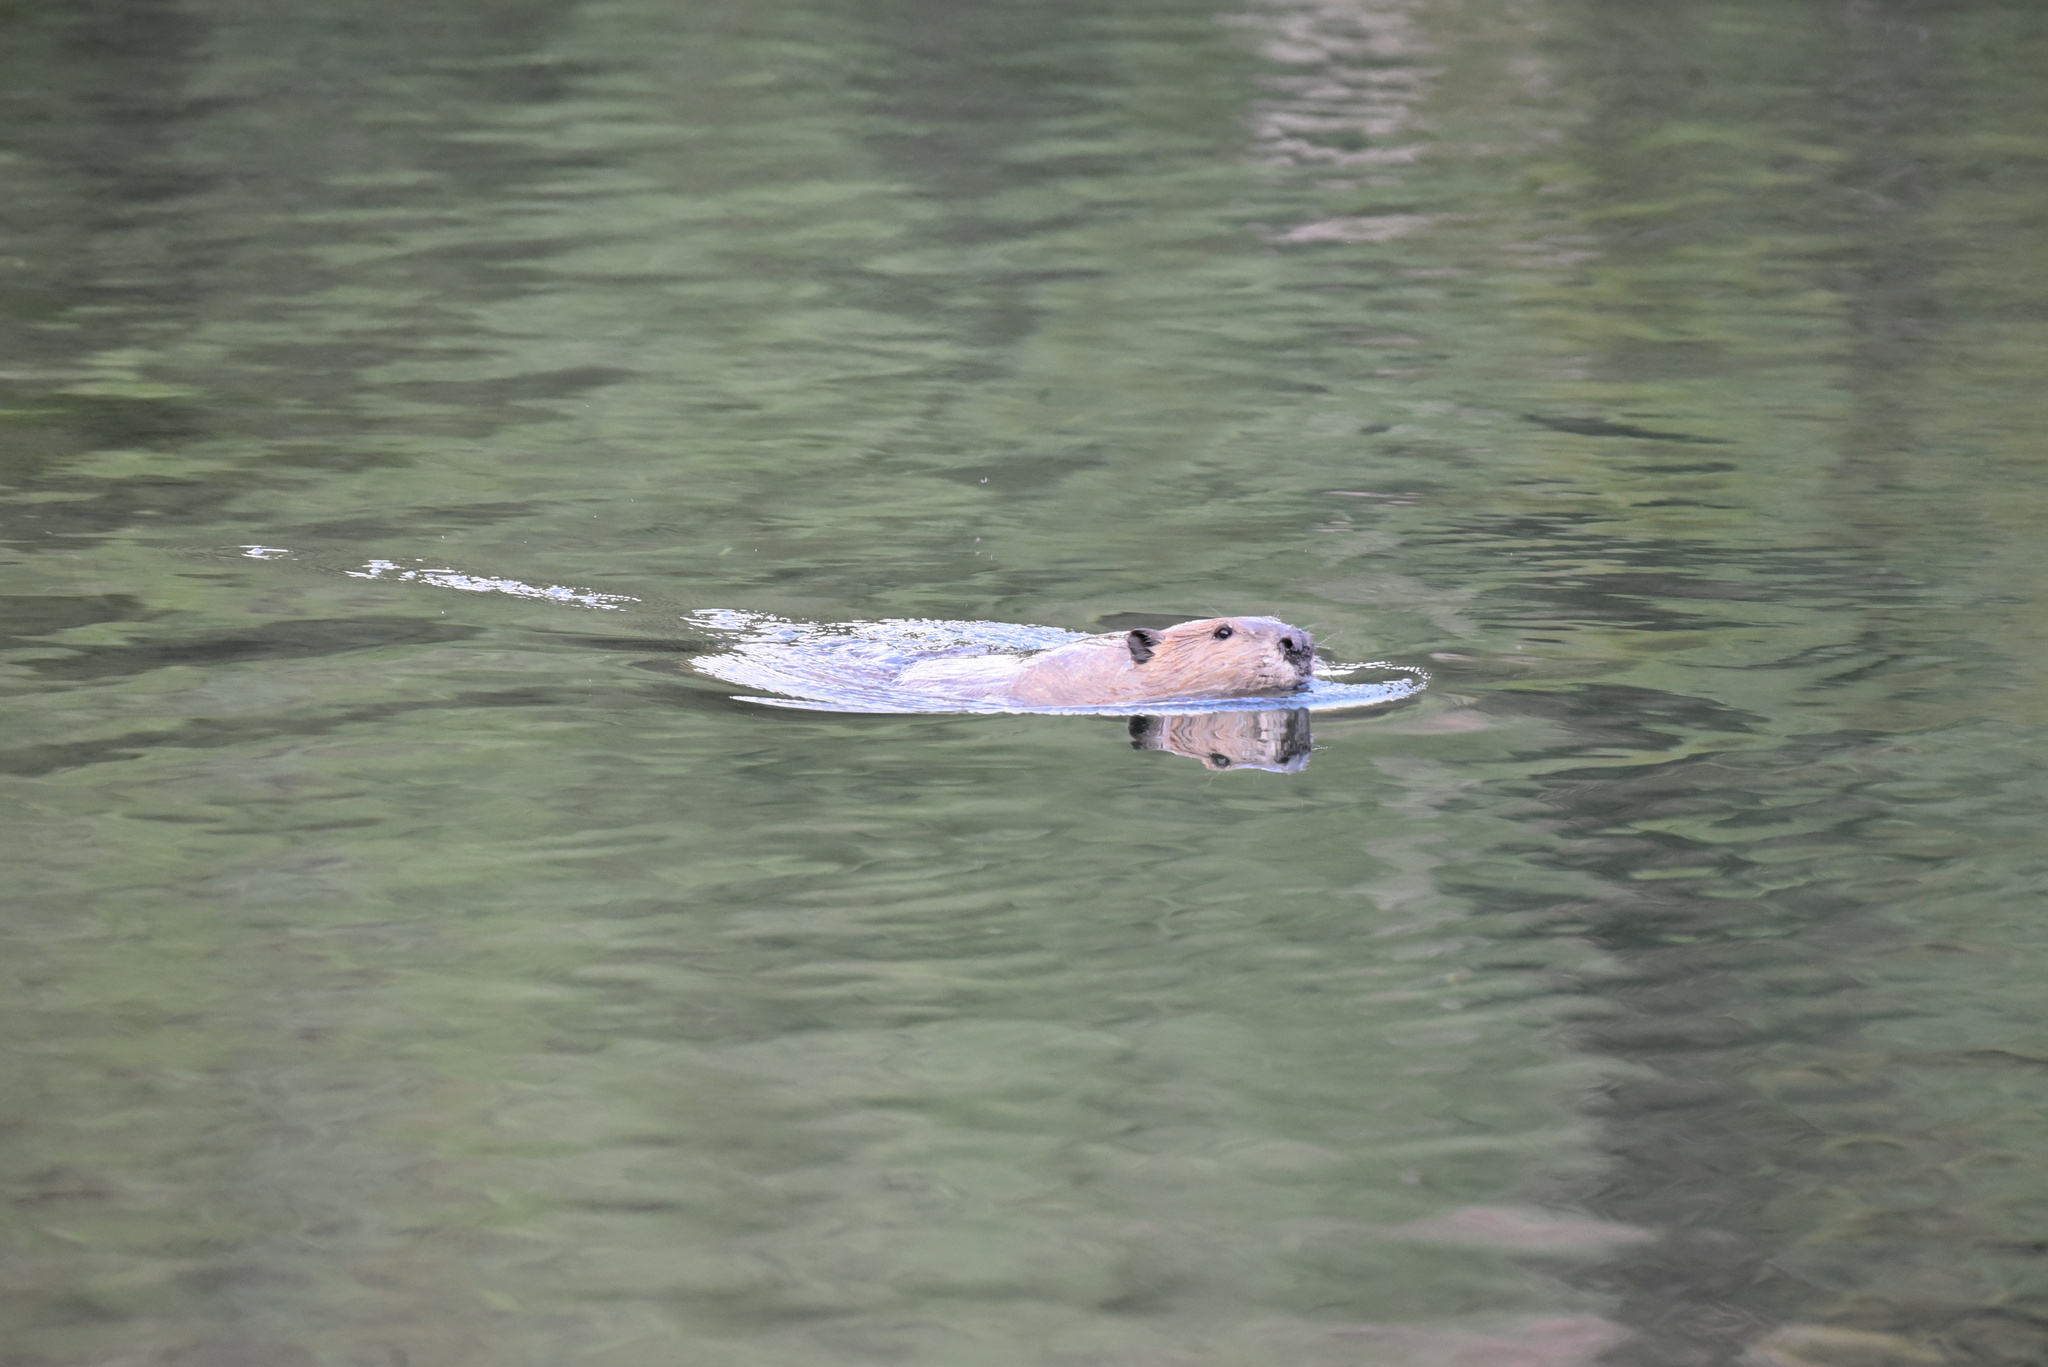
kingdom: Animalia
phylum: Chordata
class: Mammalia
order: Rodentia
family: Castoridae
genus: Castor
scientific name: Castor canadensis
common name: American beaver
